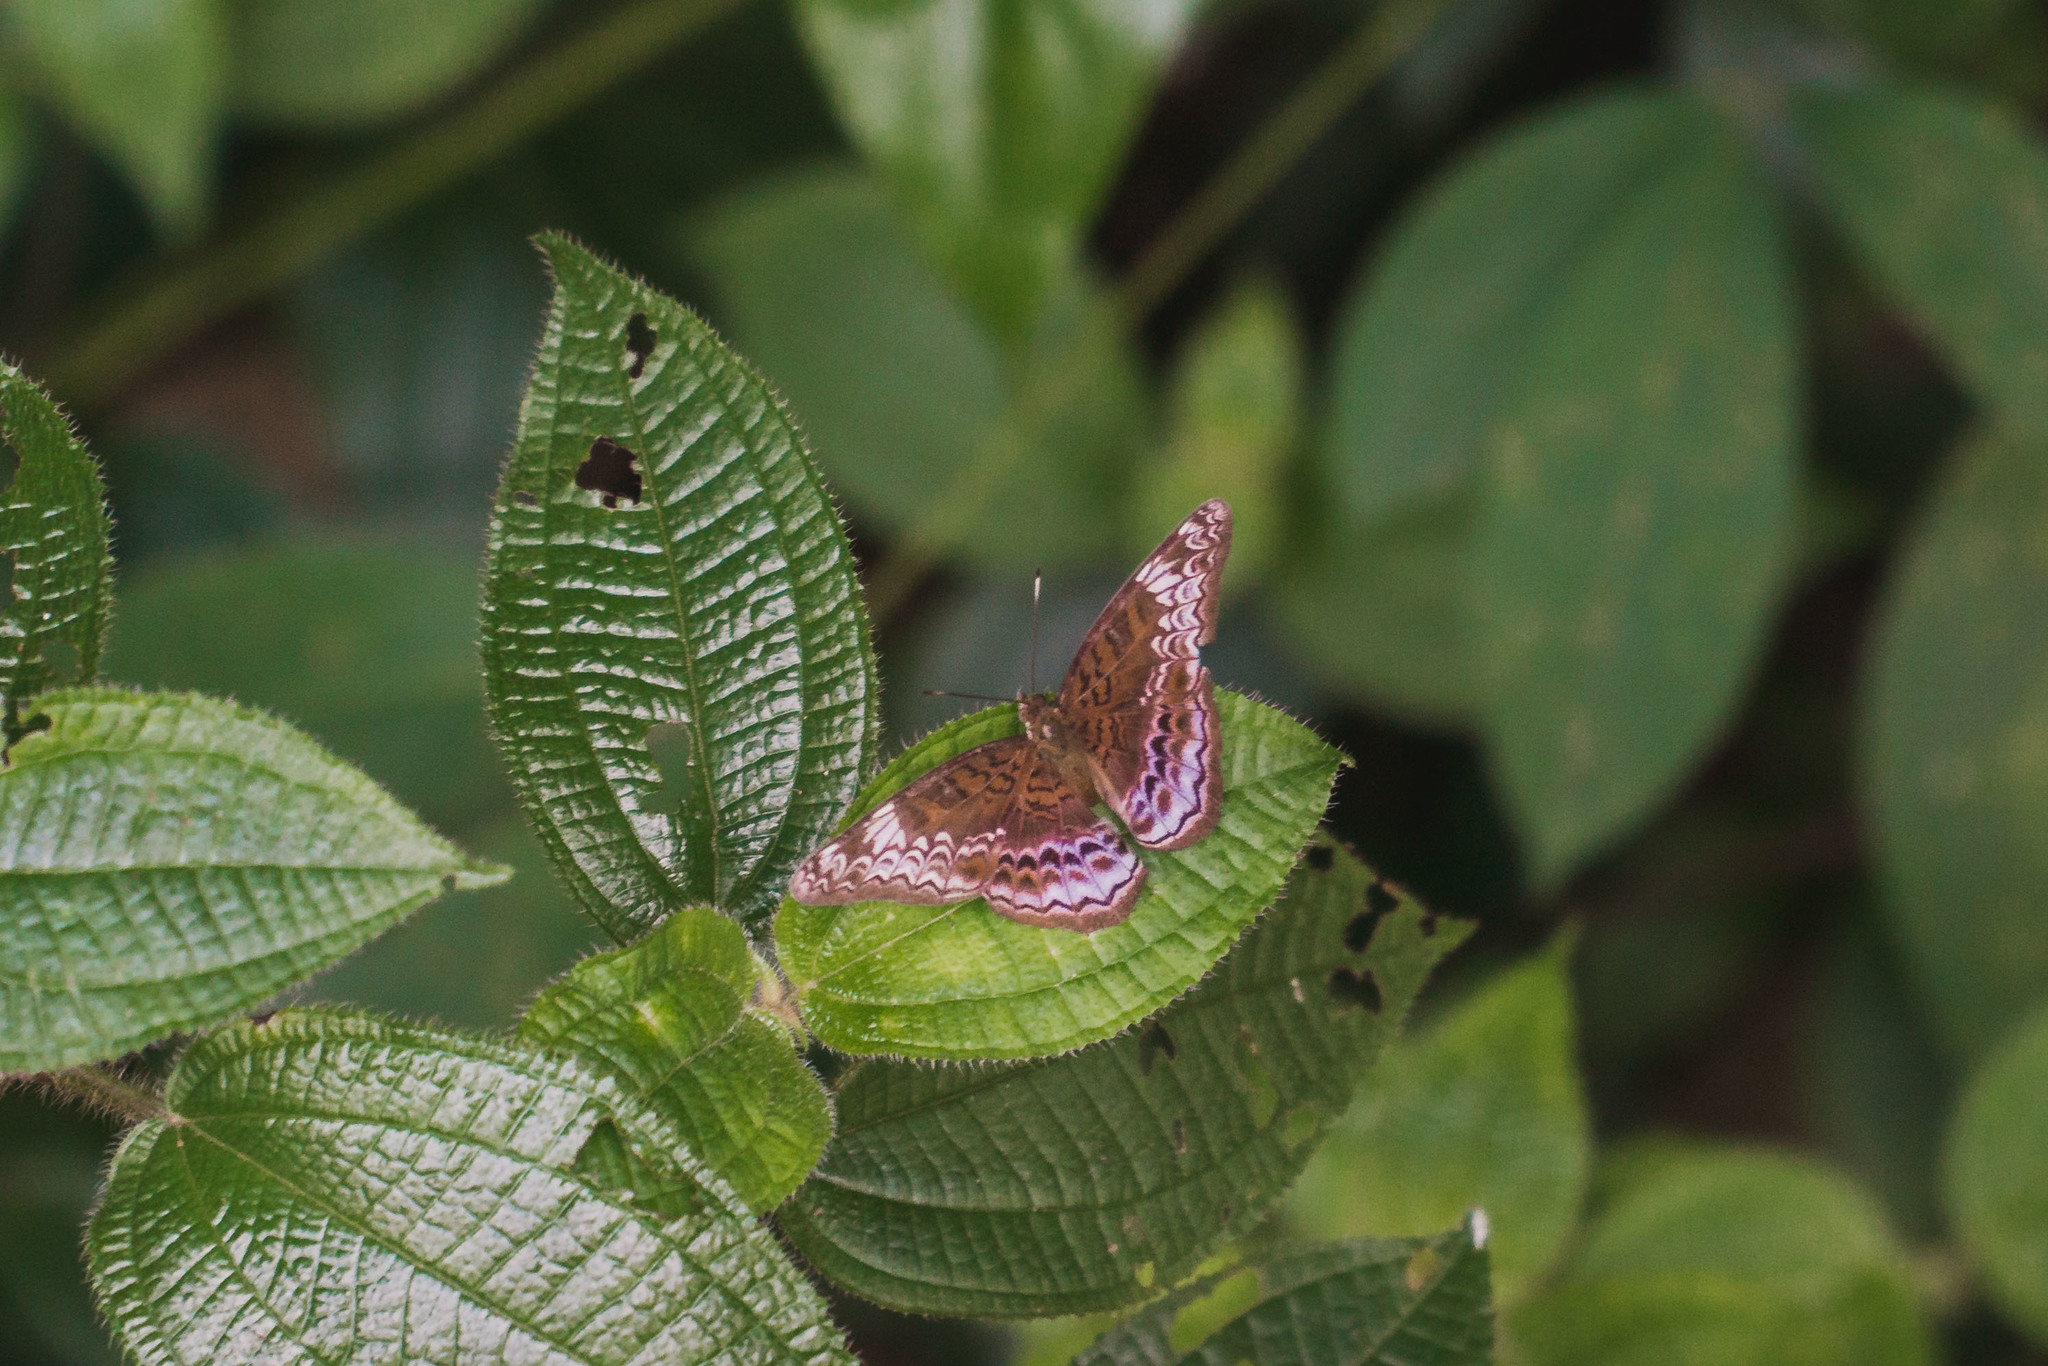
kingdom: Animalia
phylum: Arthropoda
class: Insecta
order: Lepidoptera
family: Nymphalidae
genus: Lebadea
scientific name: Lebadea martha
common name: Knight
